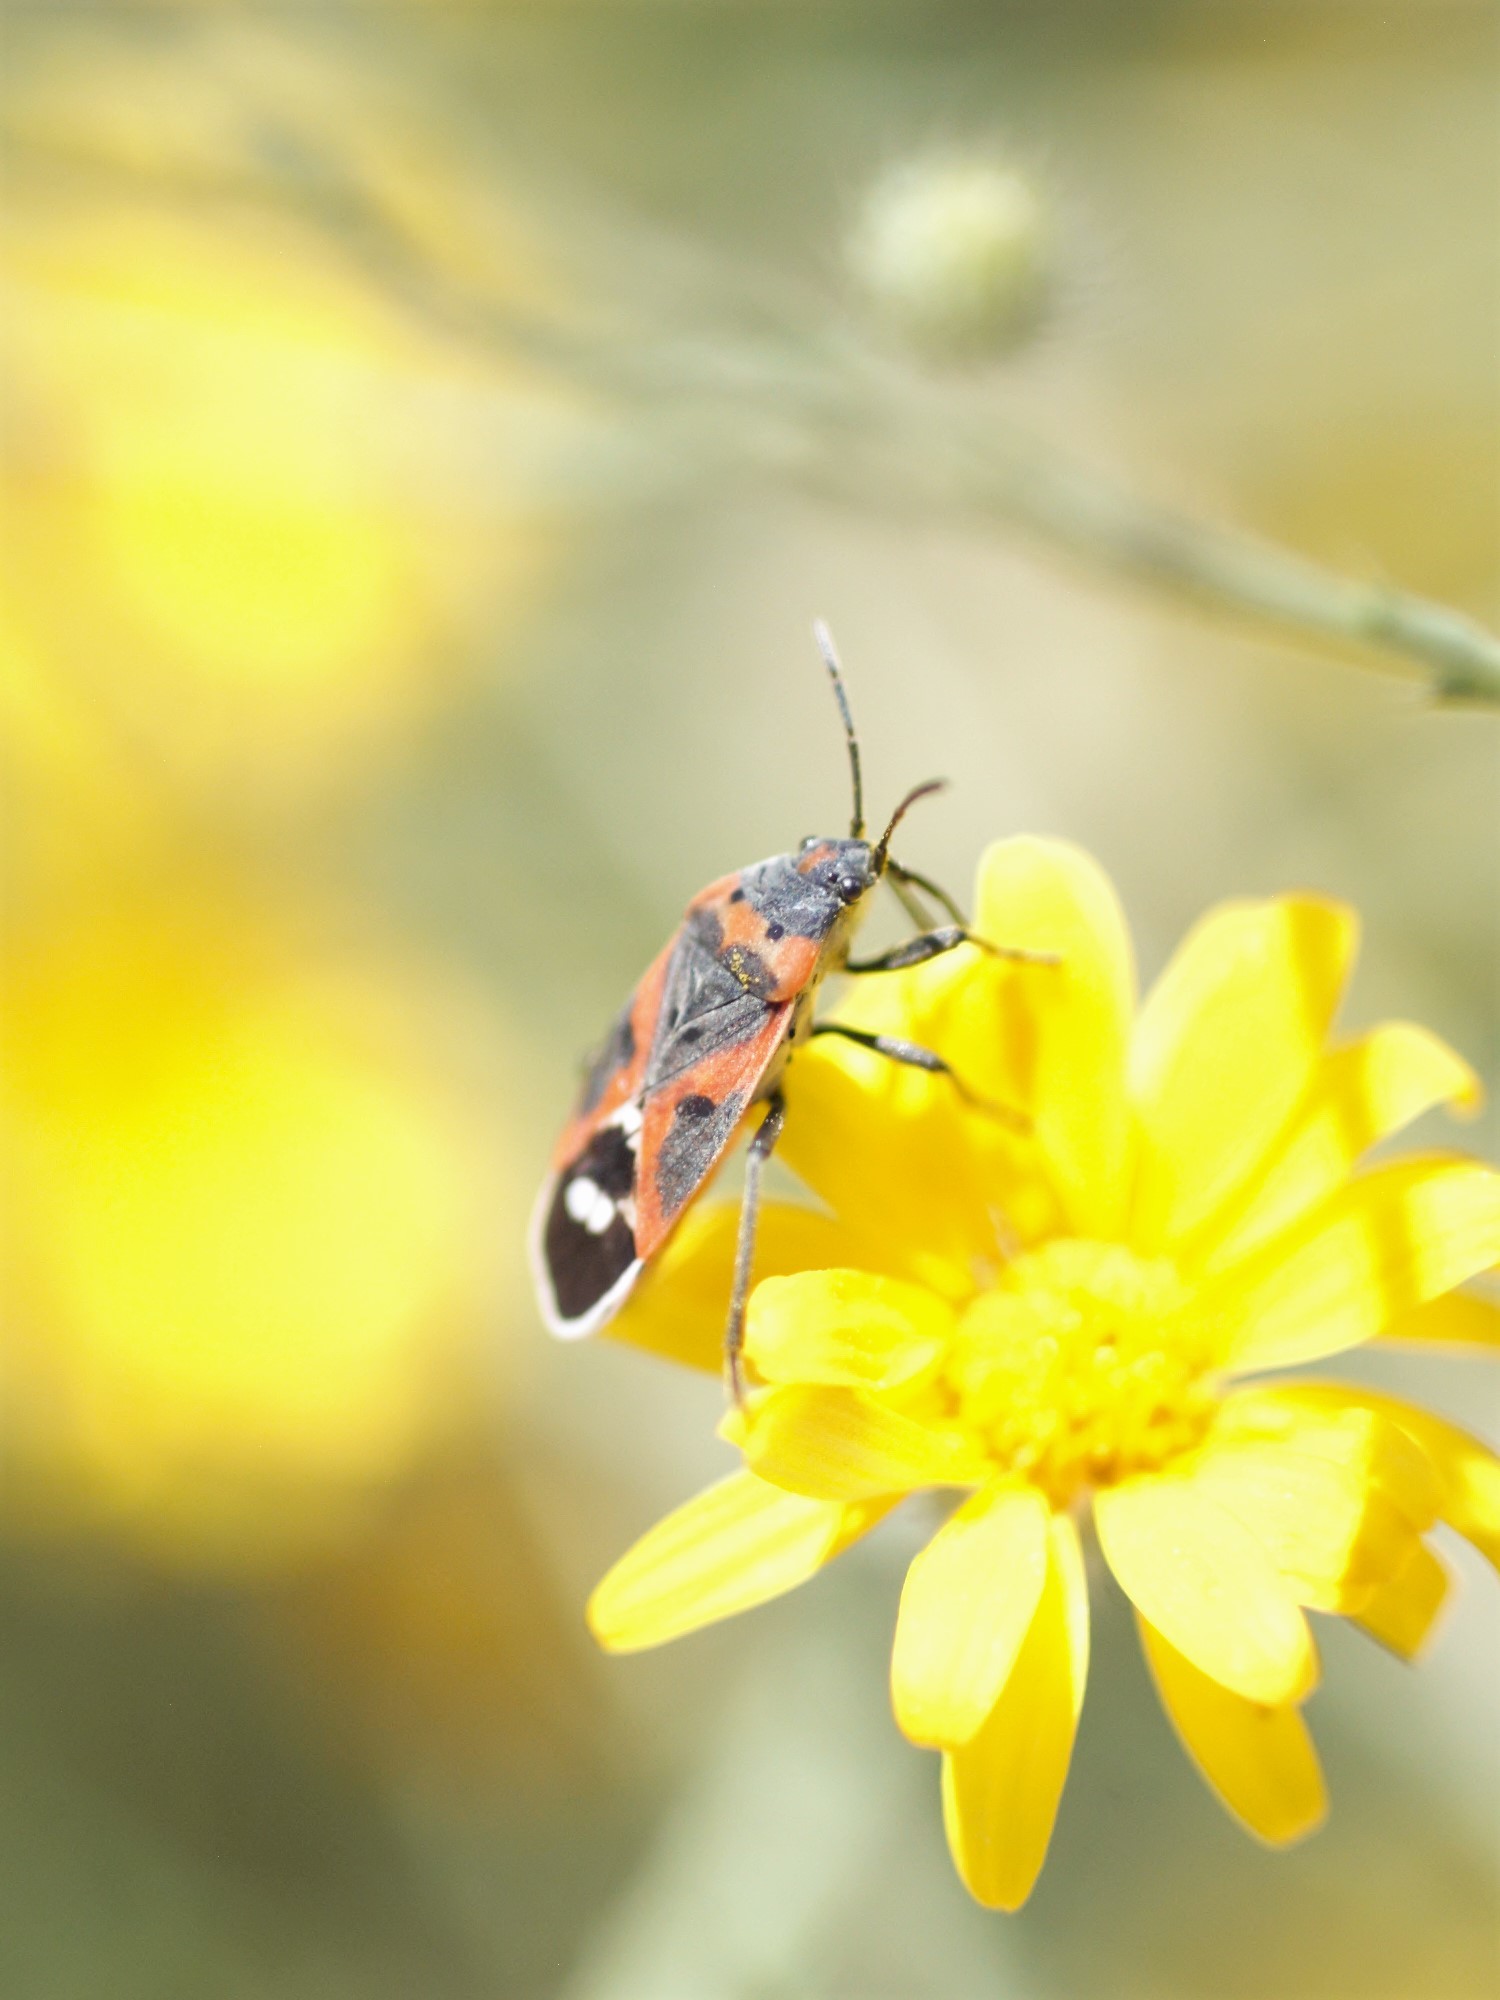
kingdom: Animalia
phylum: Arthropoda
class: Insecta
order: Hemiptera
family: Lygaeidae
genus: Lygaeus
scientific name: Lygaeus kalmii
